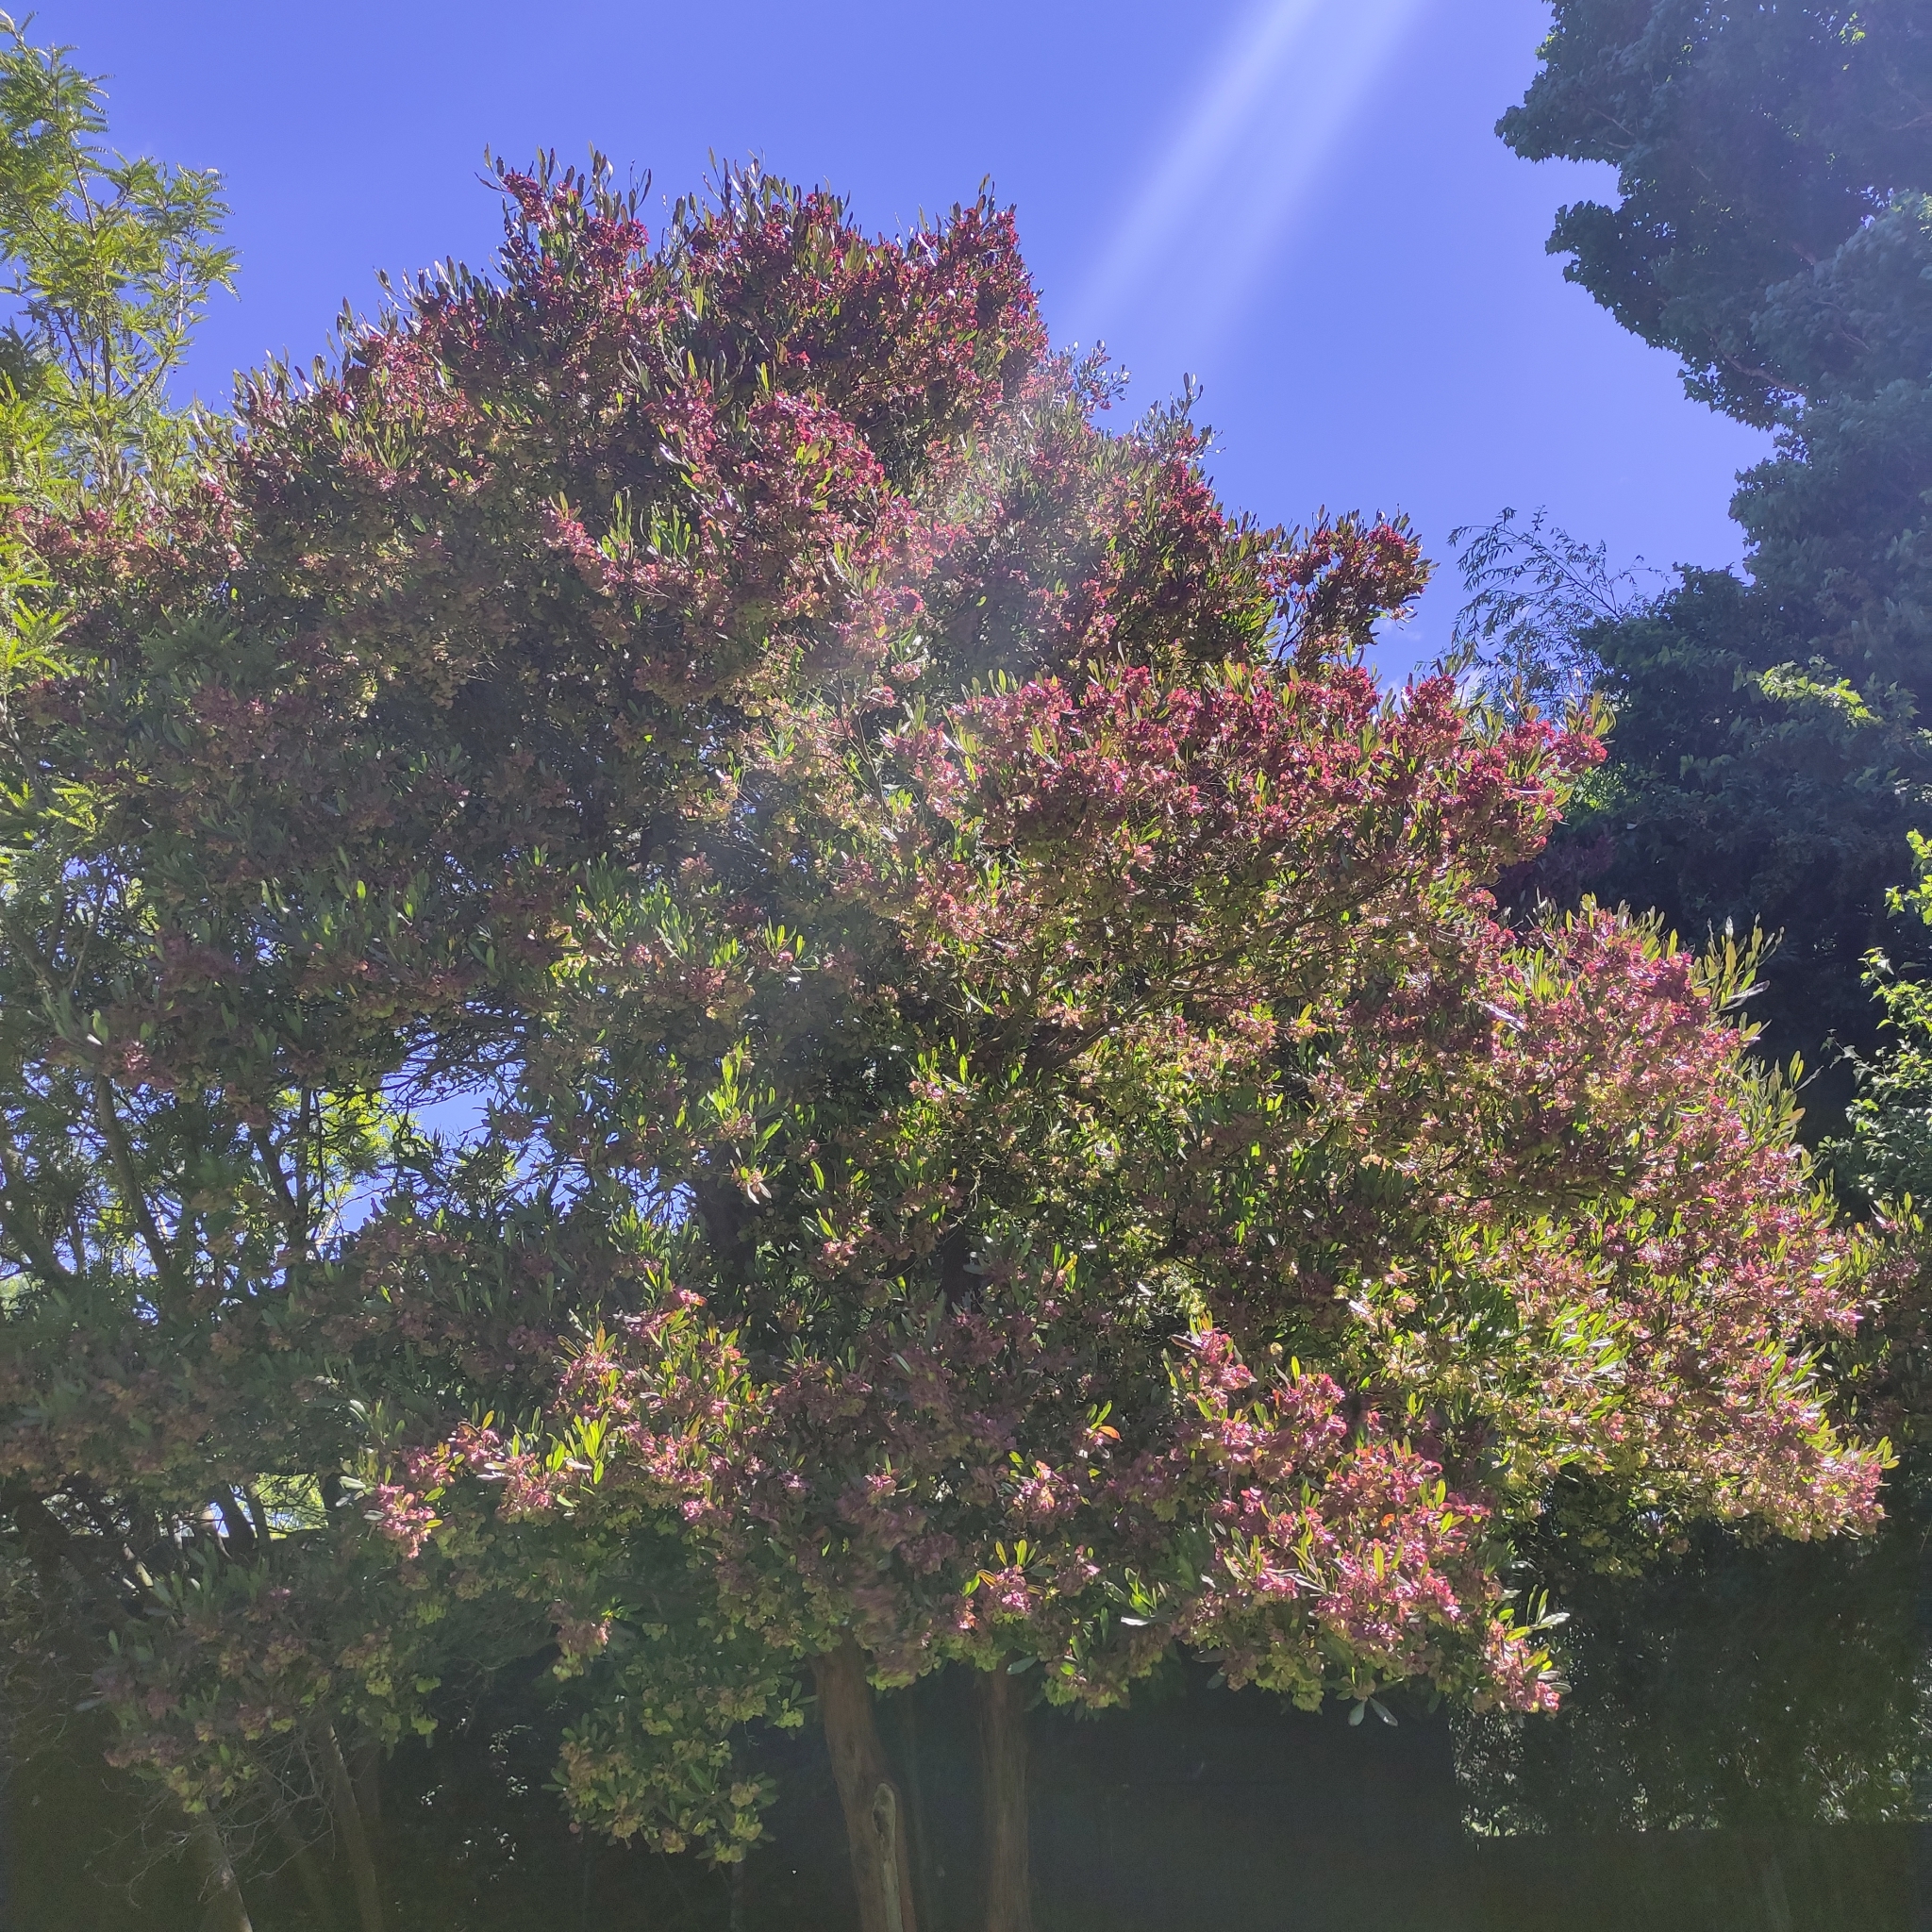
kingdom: Plantae
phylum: Tracheophyta
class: Magnoliopsida
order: Sapindales
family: Sapindaceae
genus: Dodonaea
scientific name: Dodonaea viscosa
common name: Hopbush
